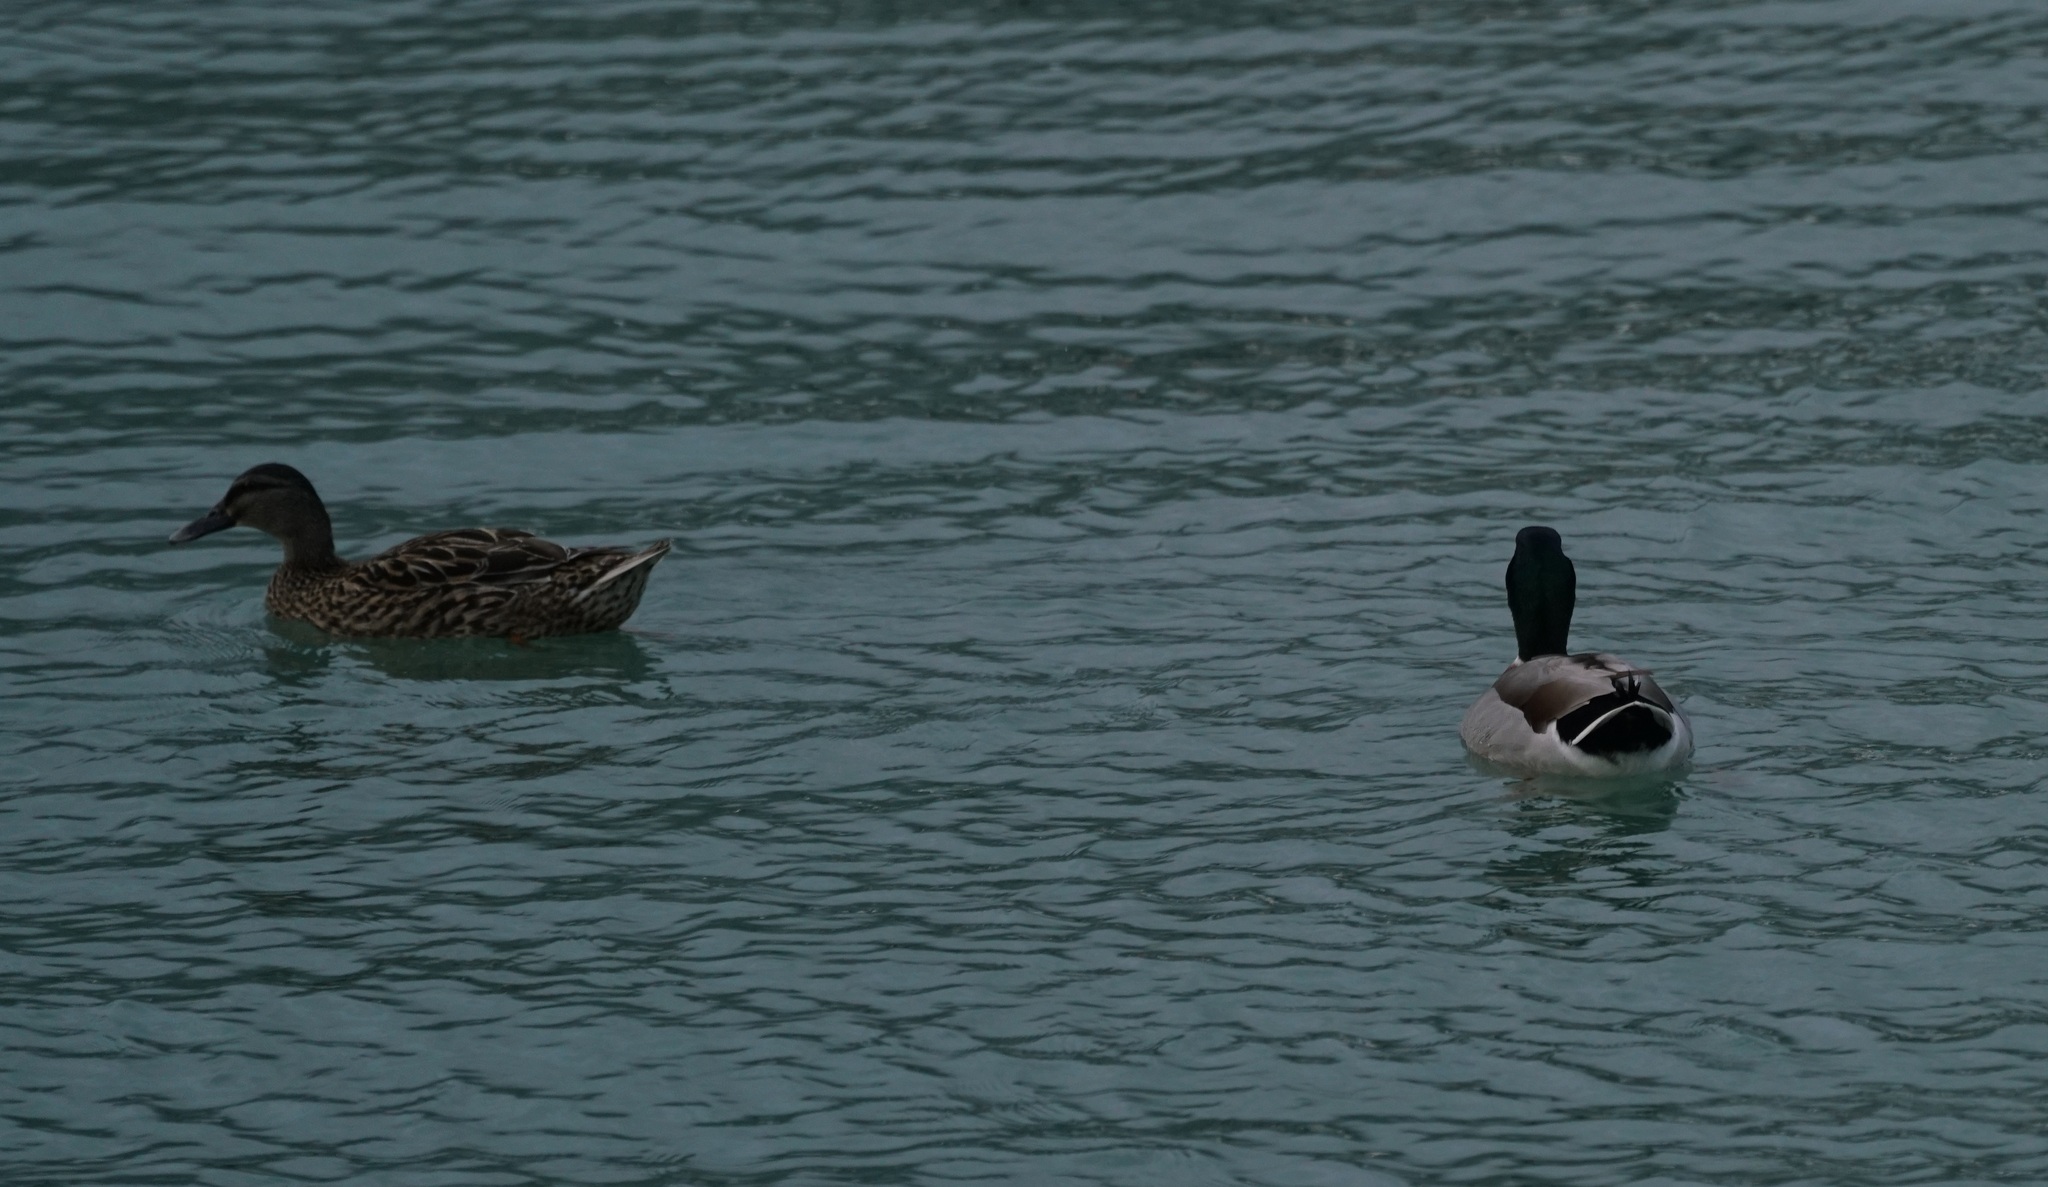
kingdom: Animalia
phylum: Chordata
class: Aves
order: Anseriformes
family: Anatidae
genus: Anas
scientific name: Anas platyrhynchos
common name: Mallard
